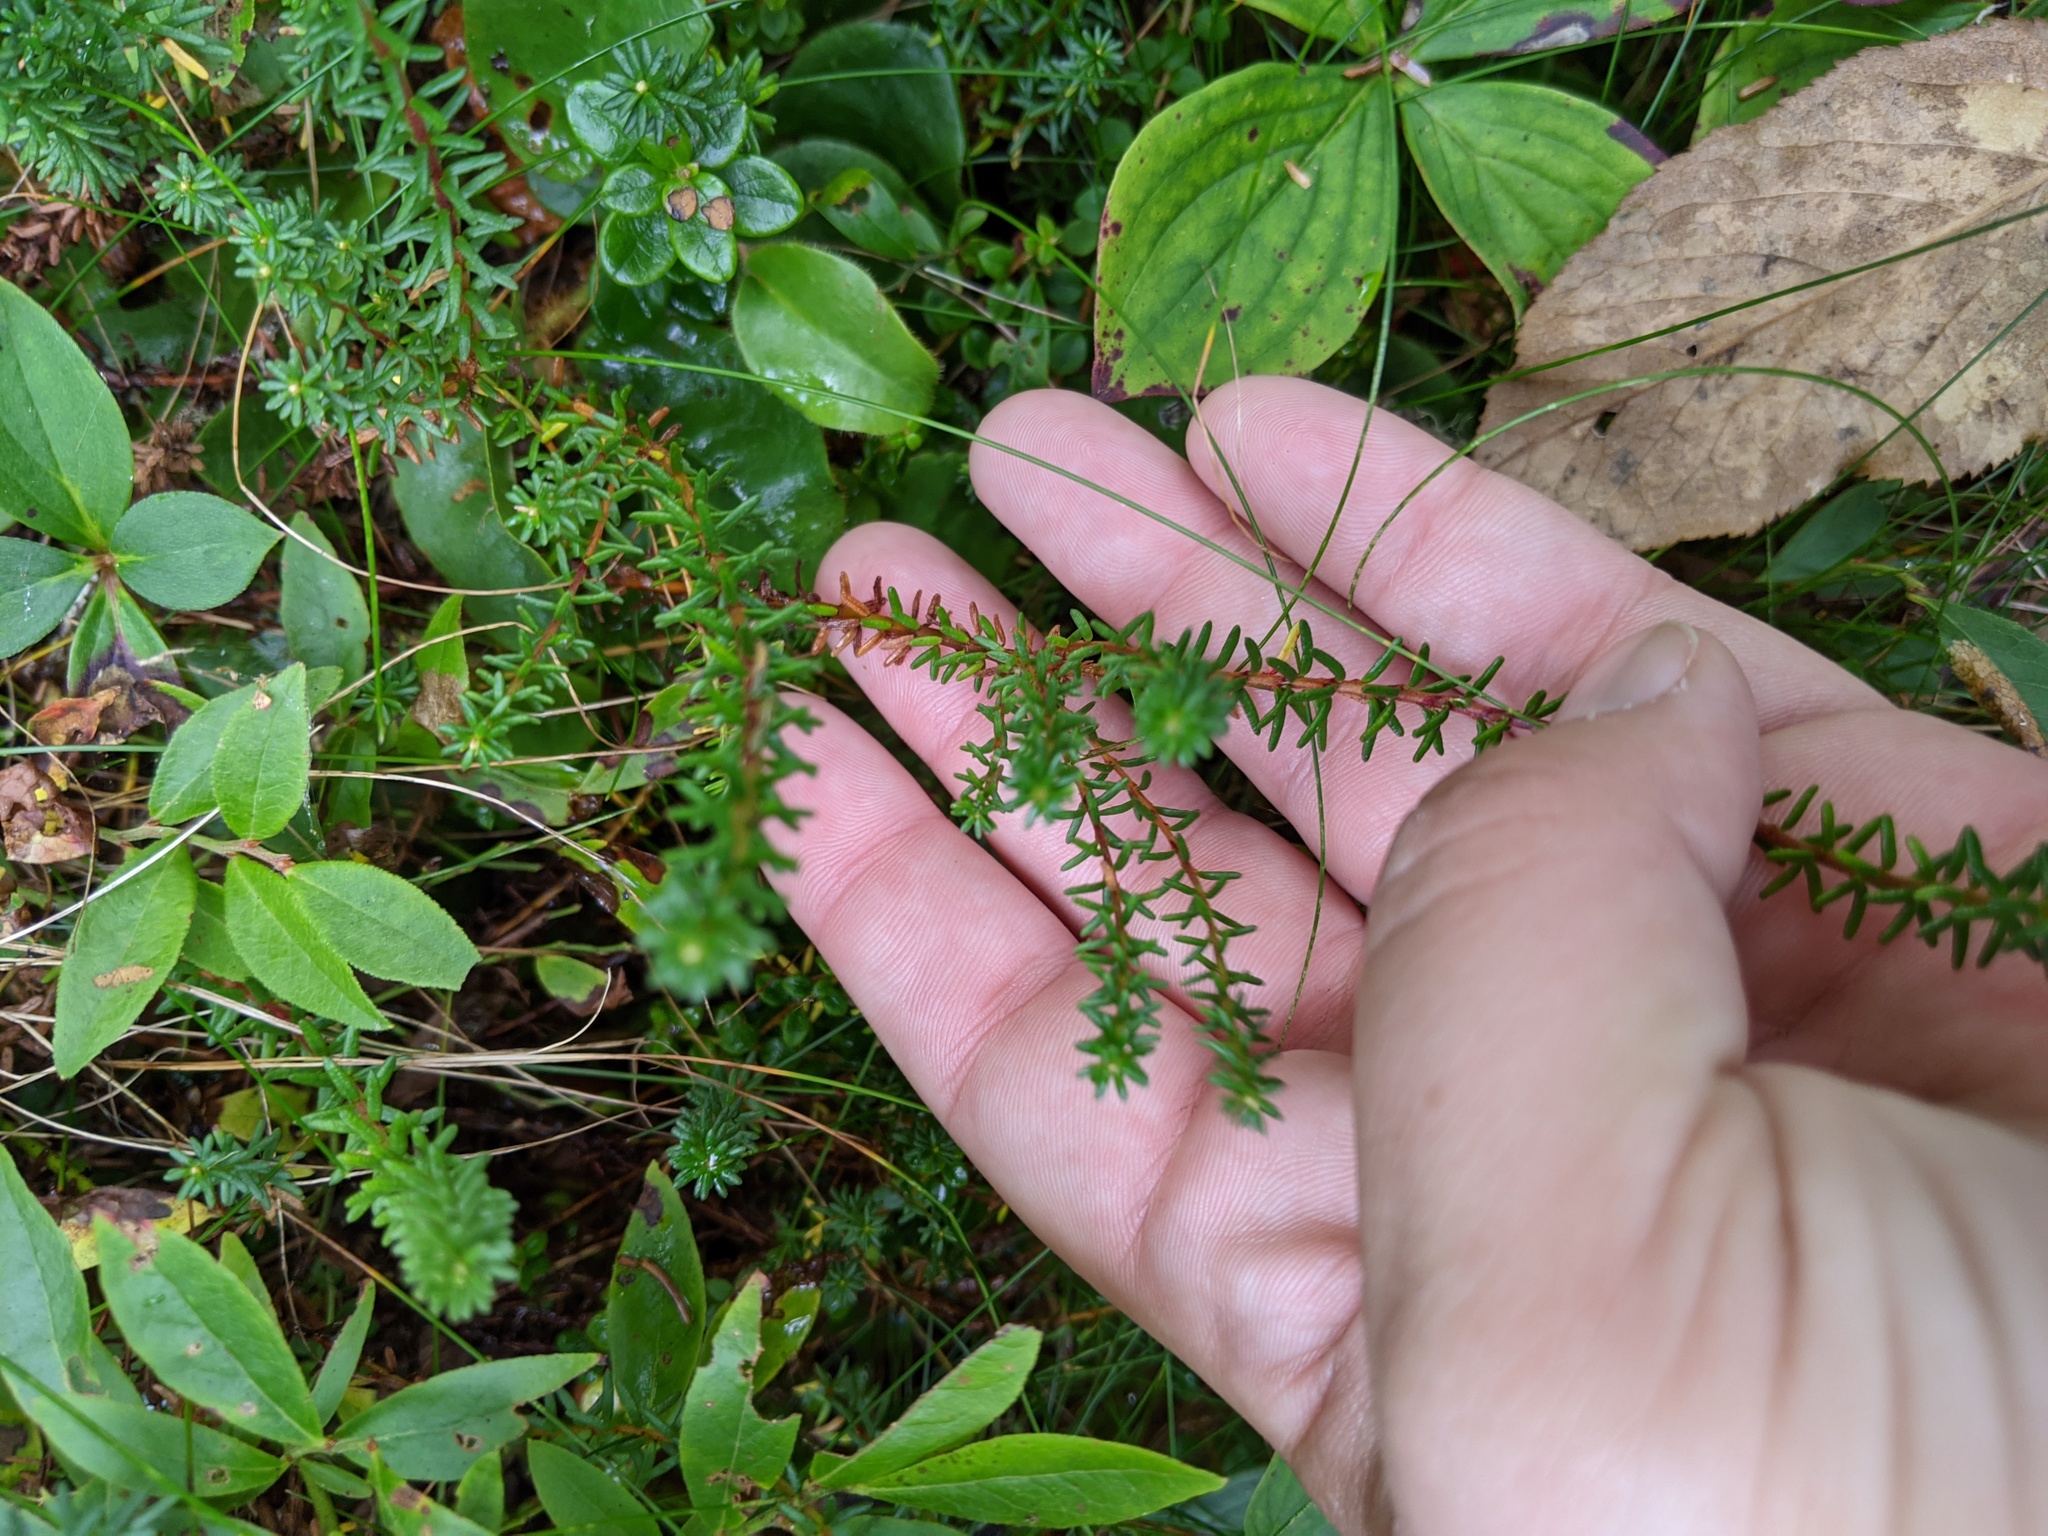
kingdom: Plantae
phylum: Tracheophyta
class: Magnoliopsida
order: Ericales
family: Ericaceae
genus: Empetrum
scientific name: Empetrum nigrum
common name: Black crowberry
